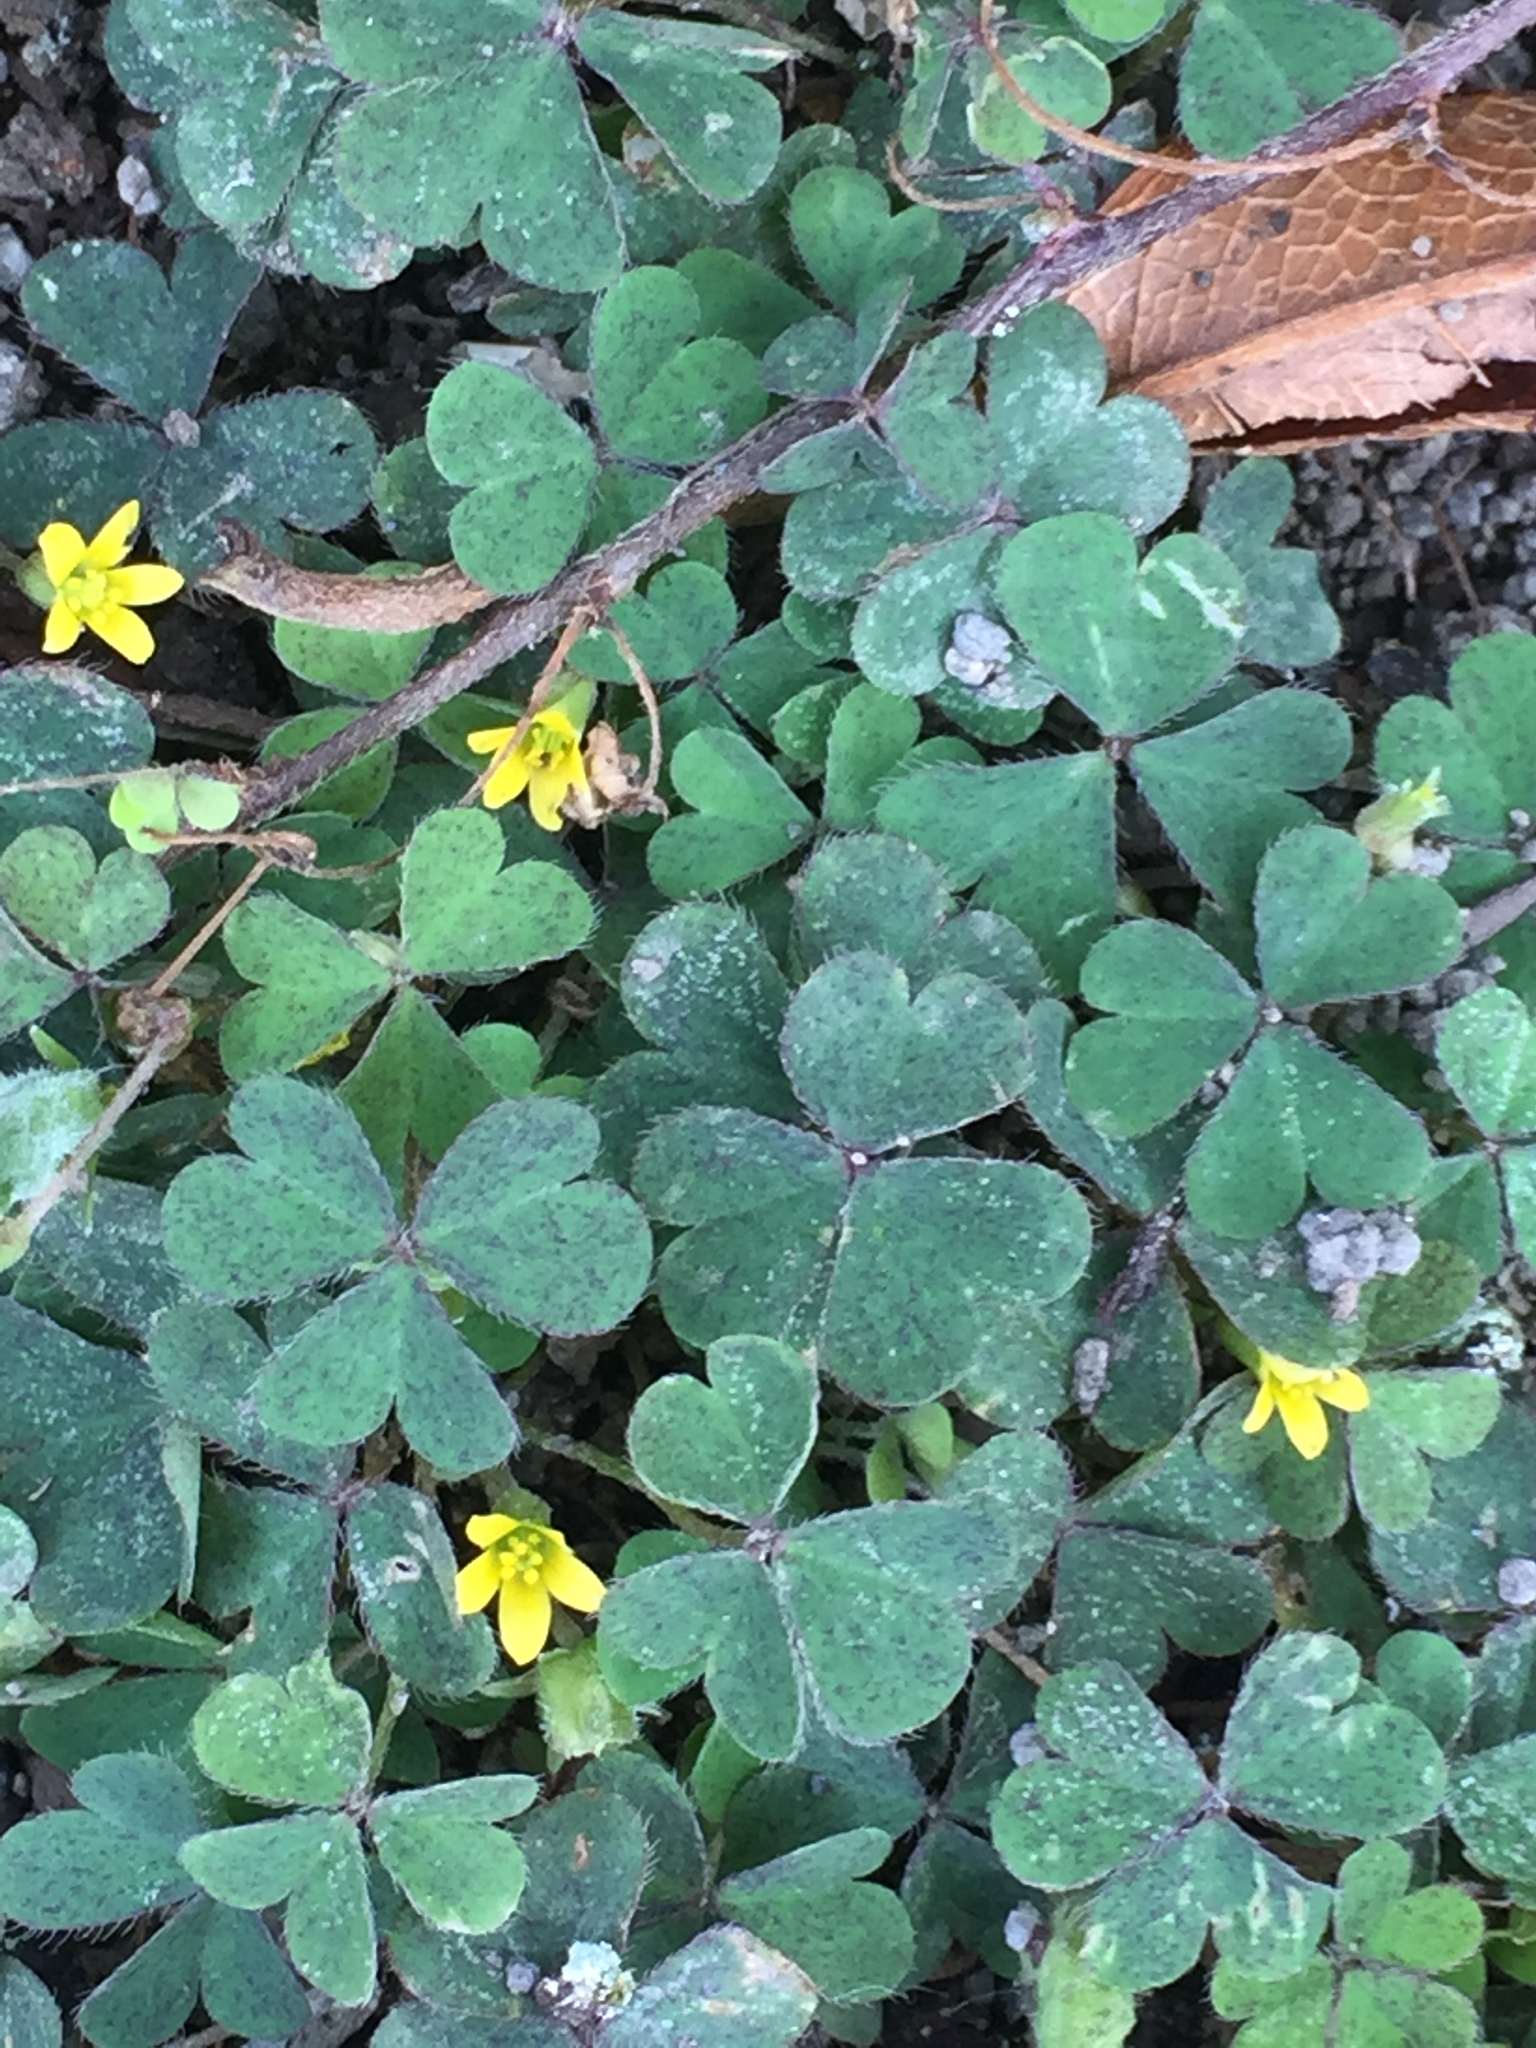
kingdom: Plantae
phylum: Tracheophyta
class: Magnoliopsida
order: Oxalidales
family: Oxalidaceae
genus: Oxalis
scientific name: Oxalis corniculata
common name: Procumbent yellow-sorrel
